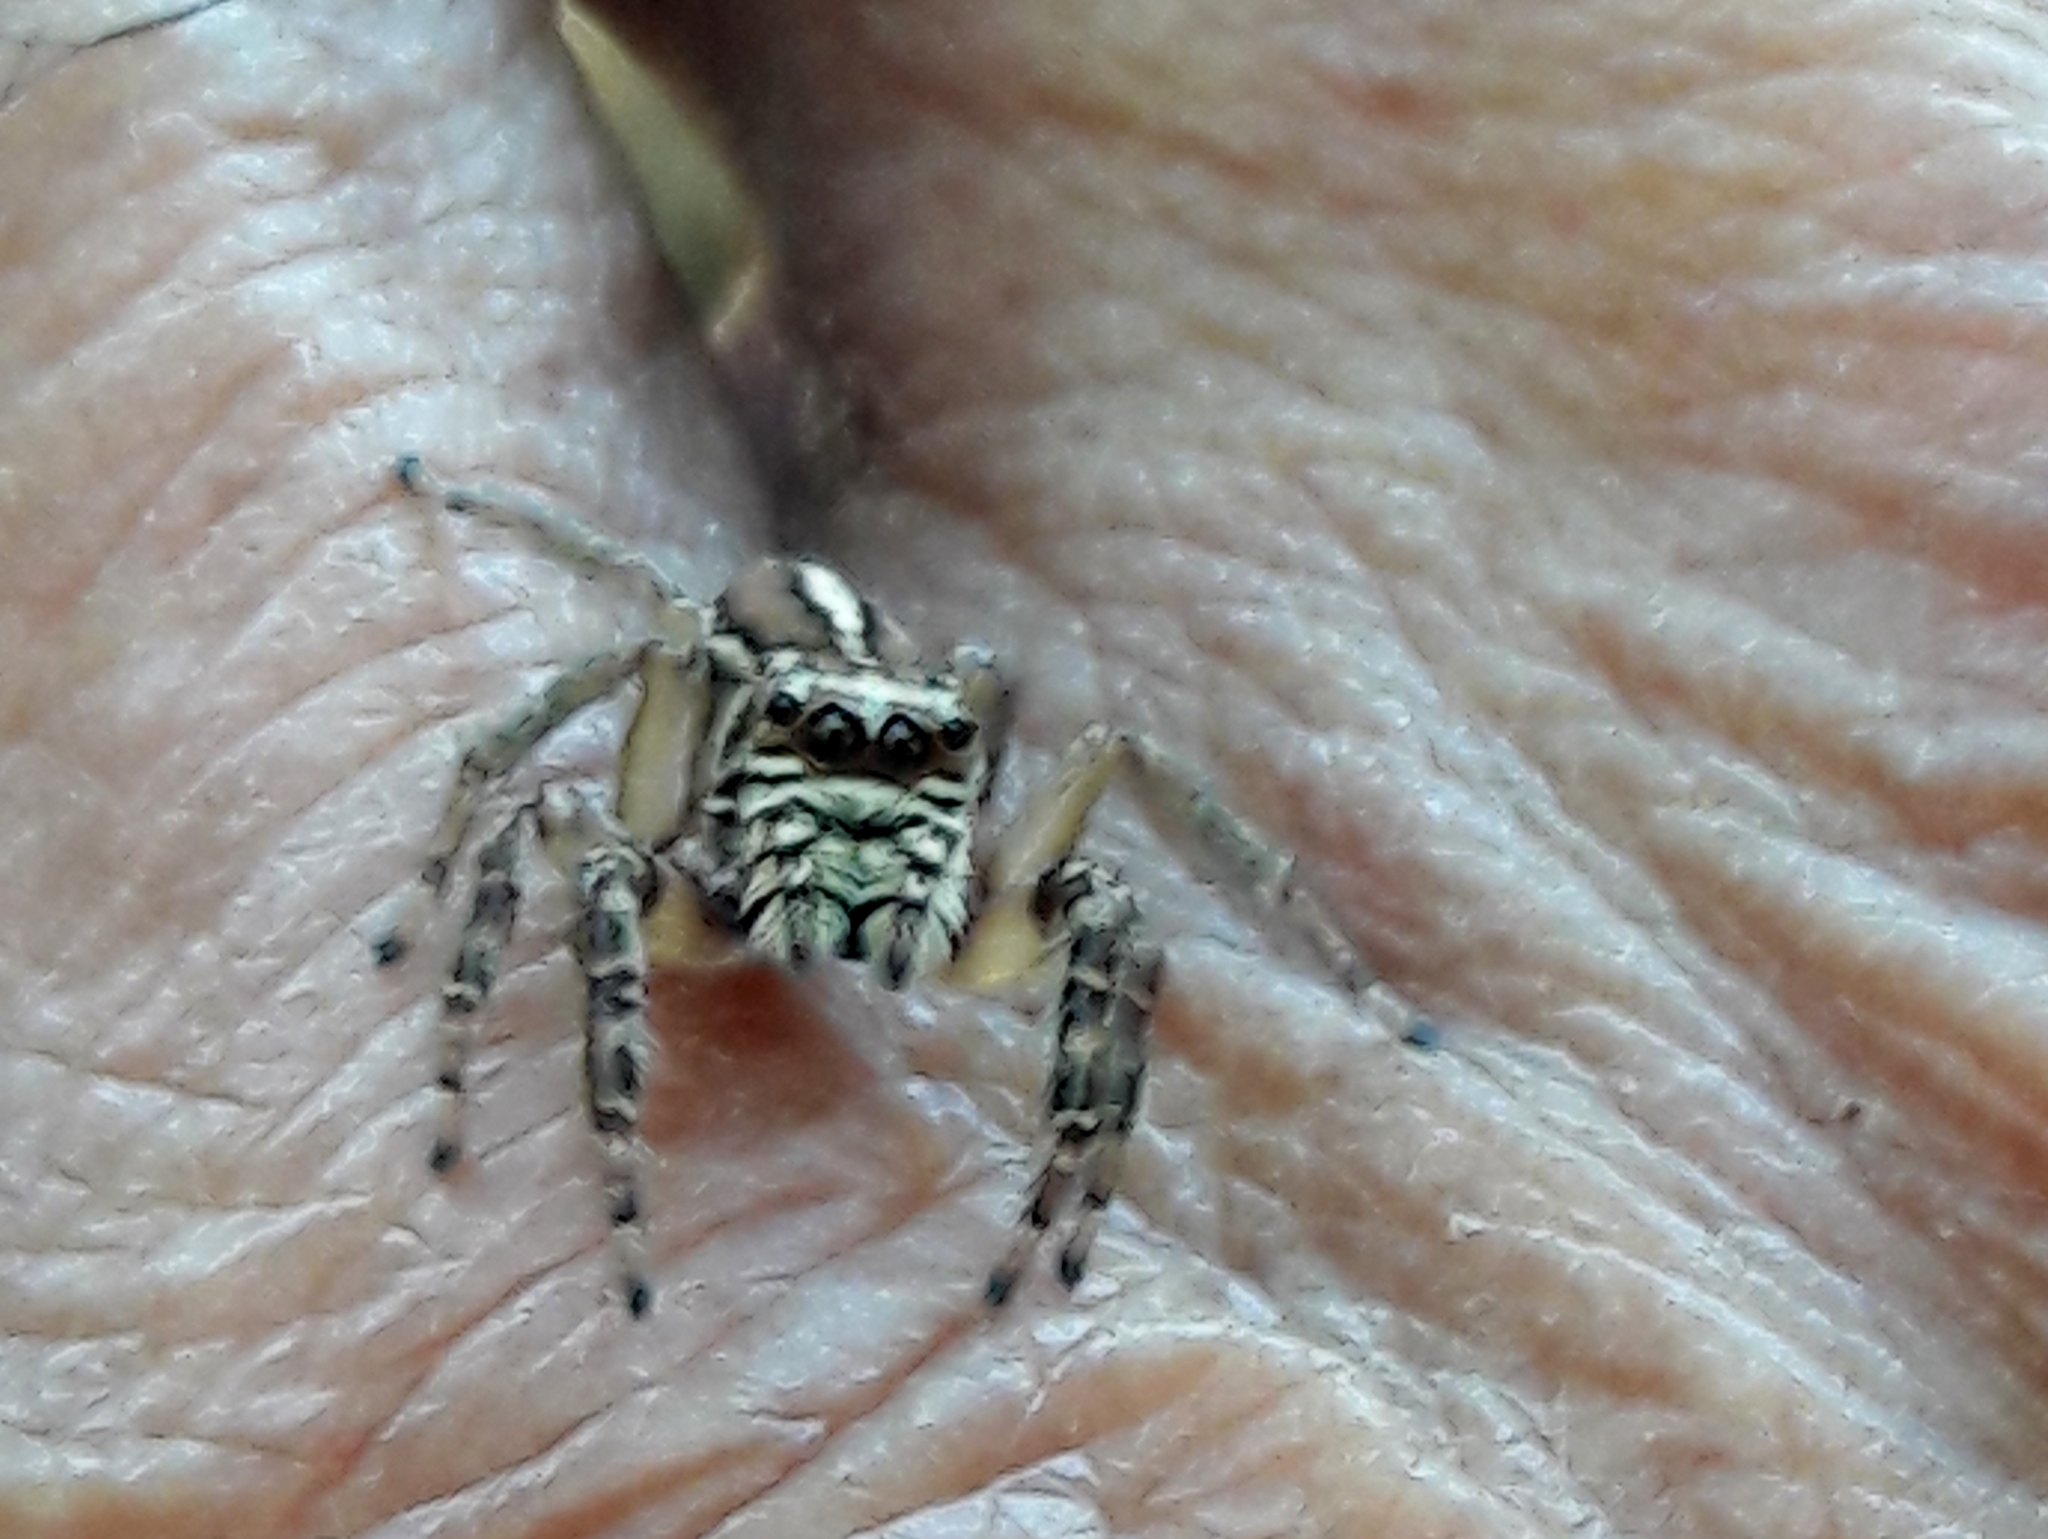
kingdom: Animalia
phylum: Arthropoda
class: Arachnida
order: Araneae
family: Salticidae
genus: Freya
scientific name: Freya nigrotaeniata
